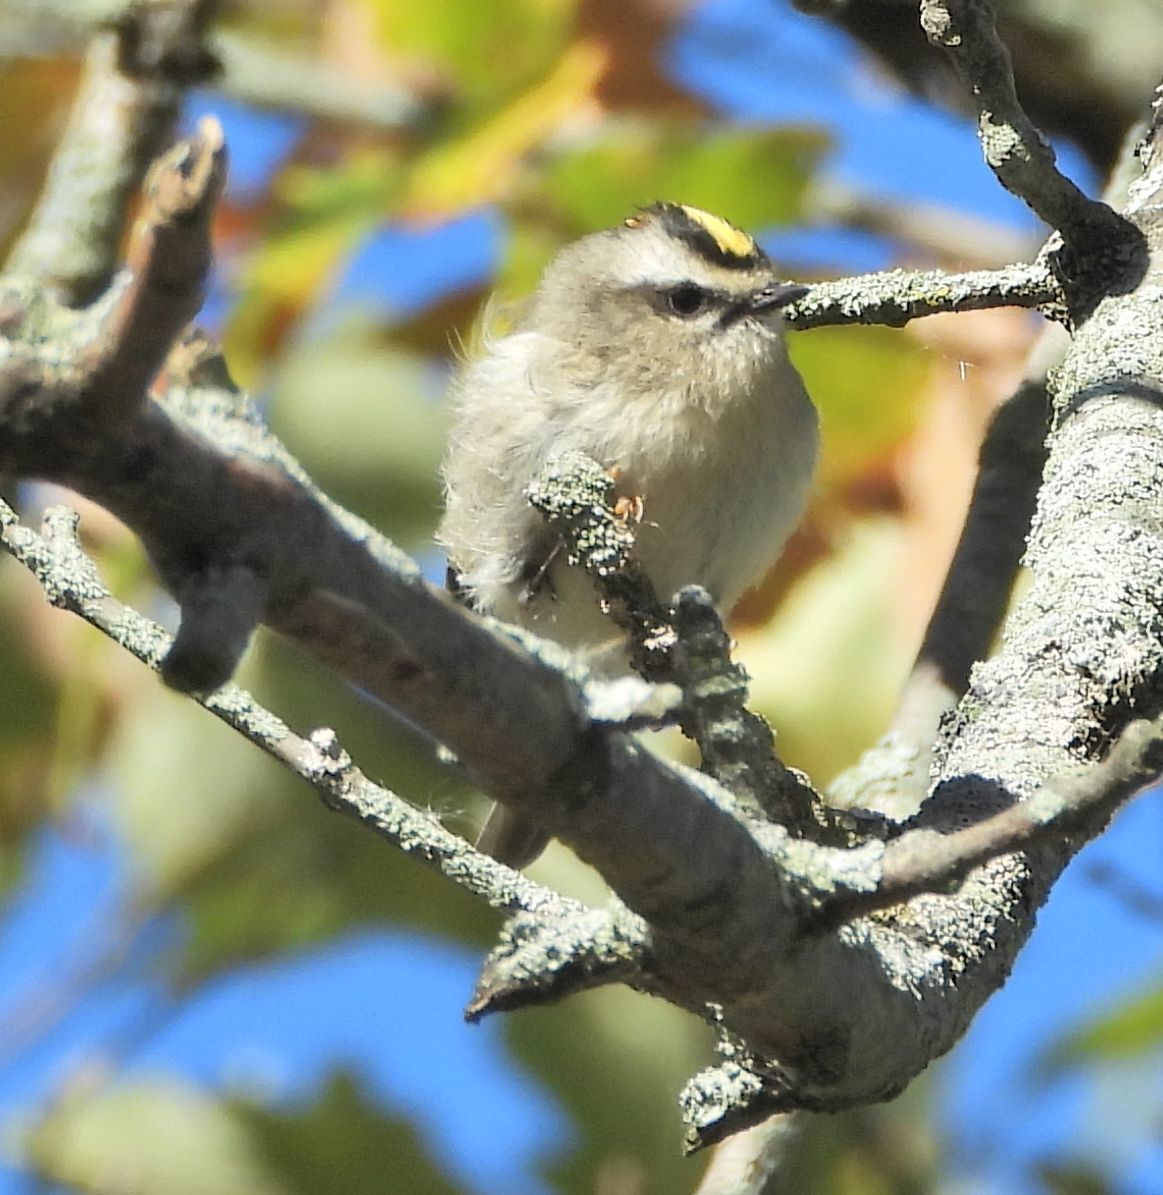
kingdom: Animalia
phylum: Chordata
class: Aves
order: Passeriformes
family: Regulidae
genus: Regulus
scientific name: Regulus satrapa
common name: Golden-crowned kinglet
